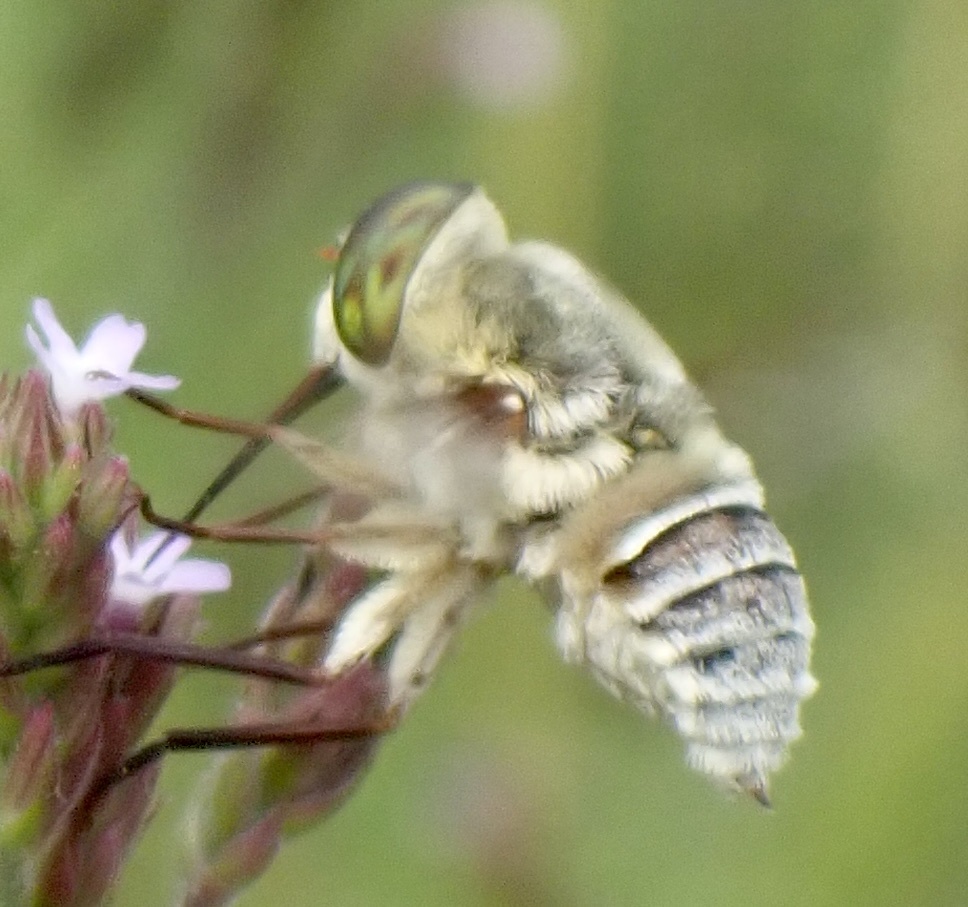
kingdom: Animalia
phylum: Arthropoda
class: Insecta
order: Diptera
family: Nemestrinidae
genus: Neorhynchocephalus
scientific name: Neorhynchocephalus volaticus
